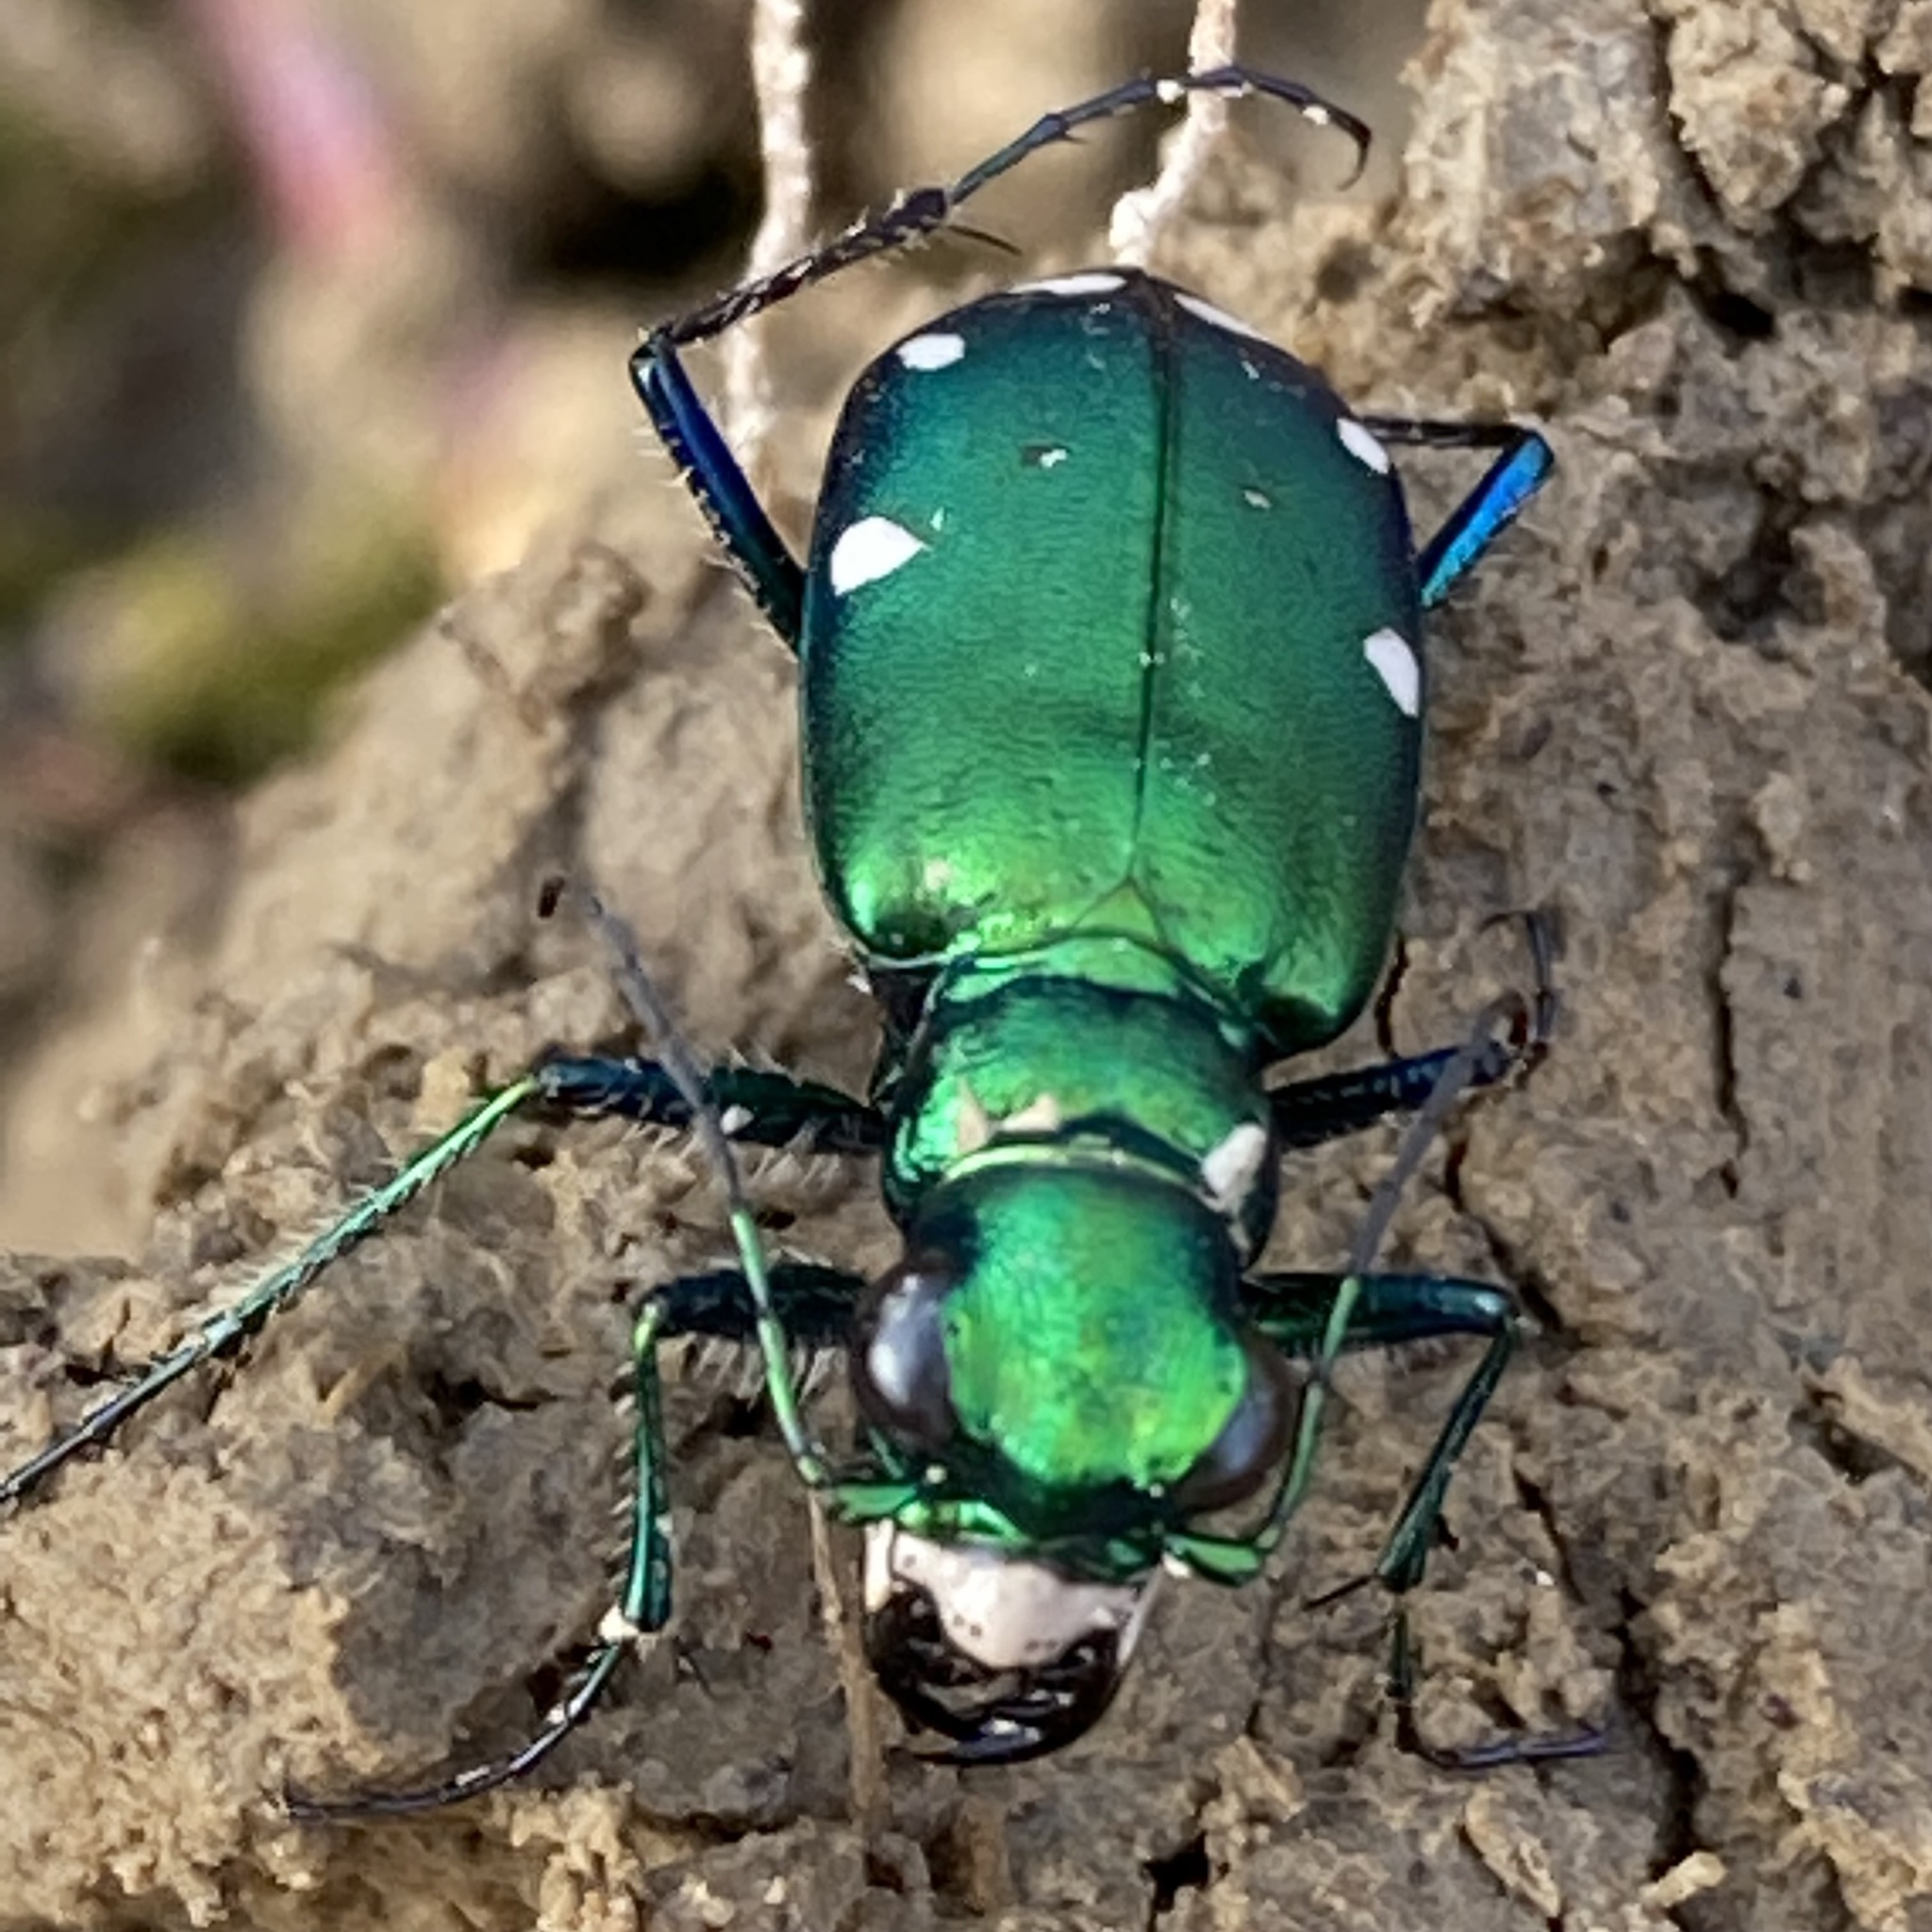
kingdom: Animalia
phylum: Arthropoda
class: Insecta
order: Coleoptera
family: Carabidae
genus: Cicindela
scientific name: Cicindela sexguttata
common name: Six-spotted tiger beetle
